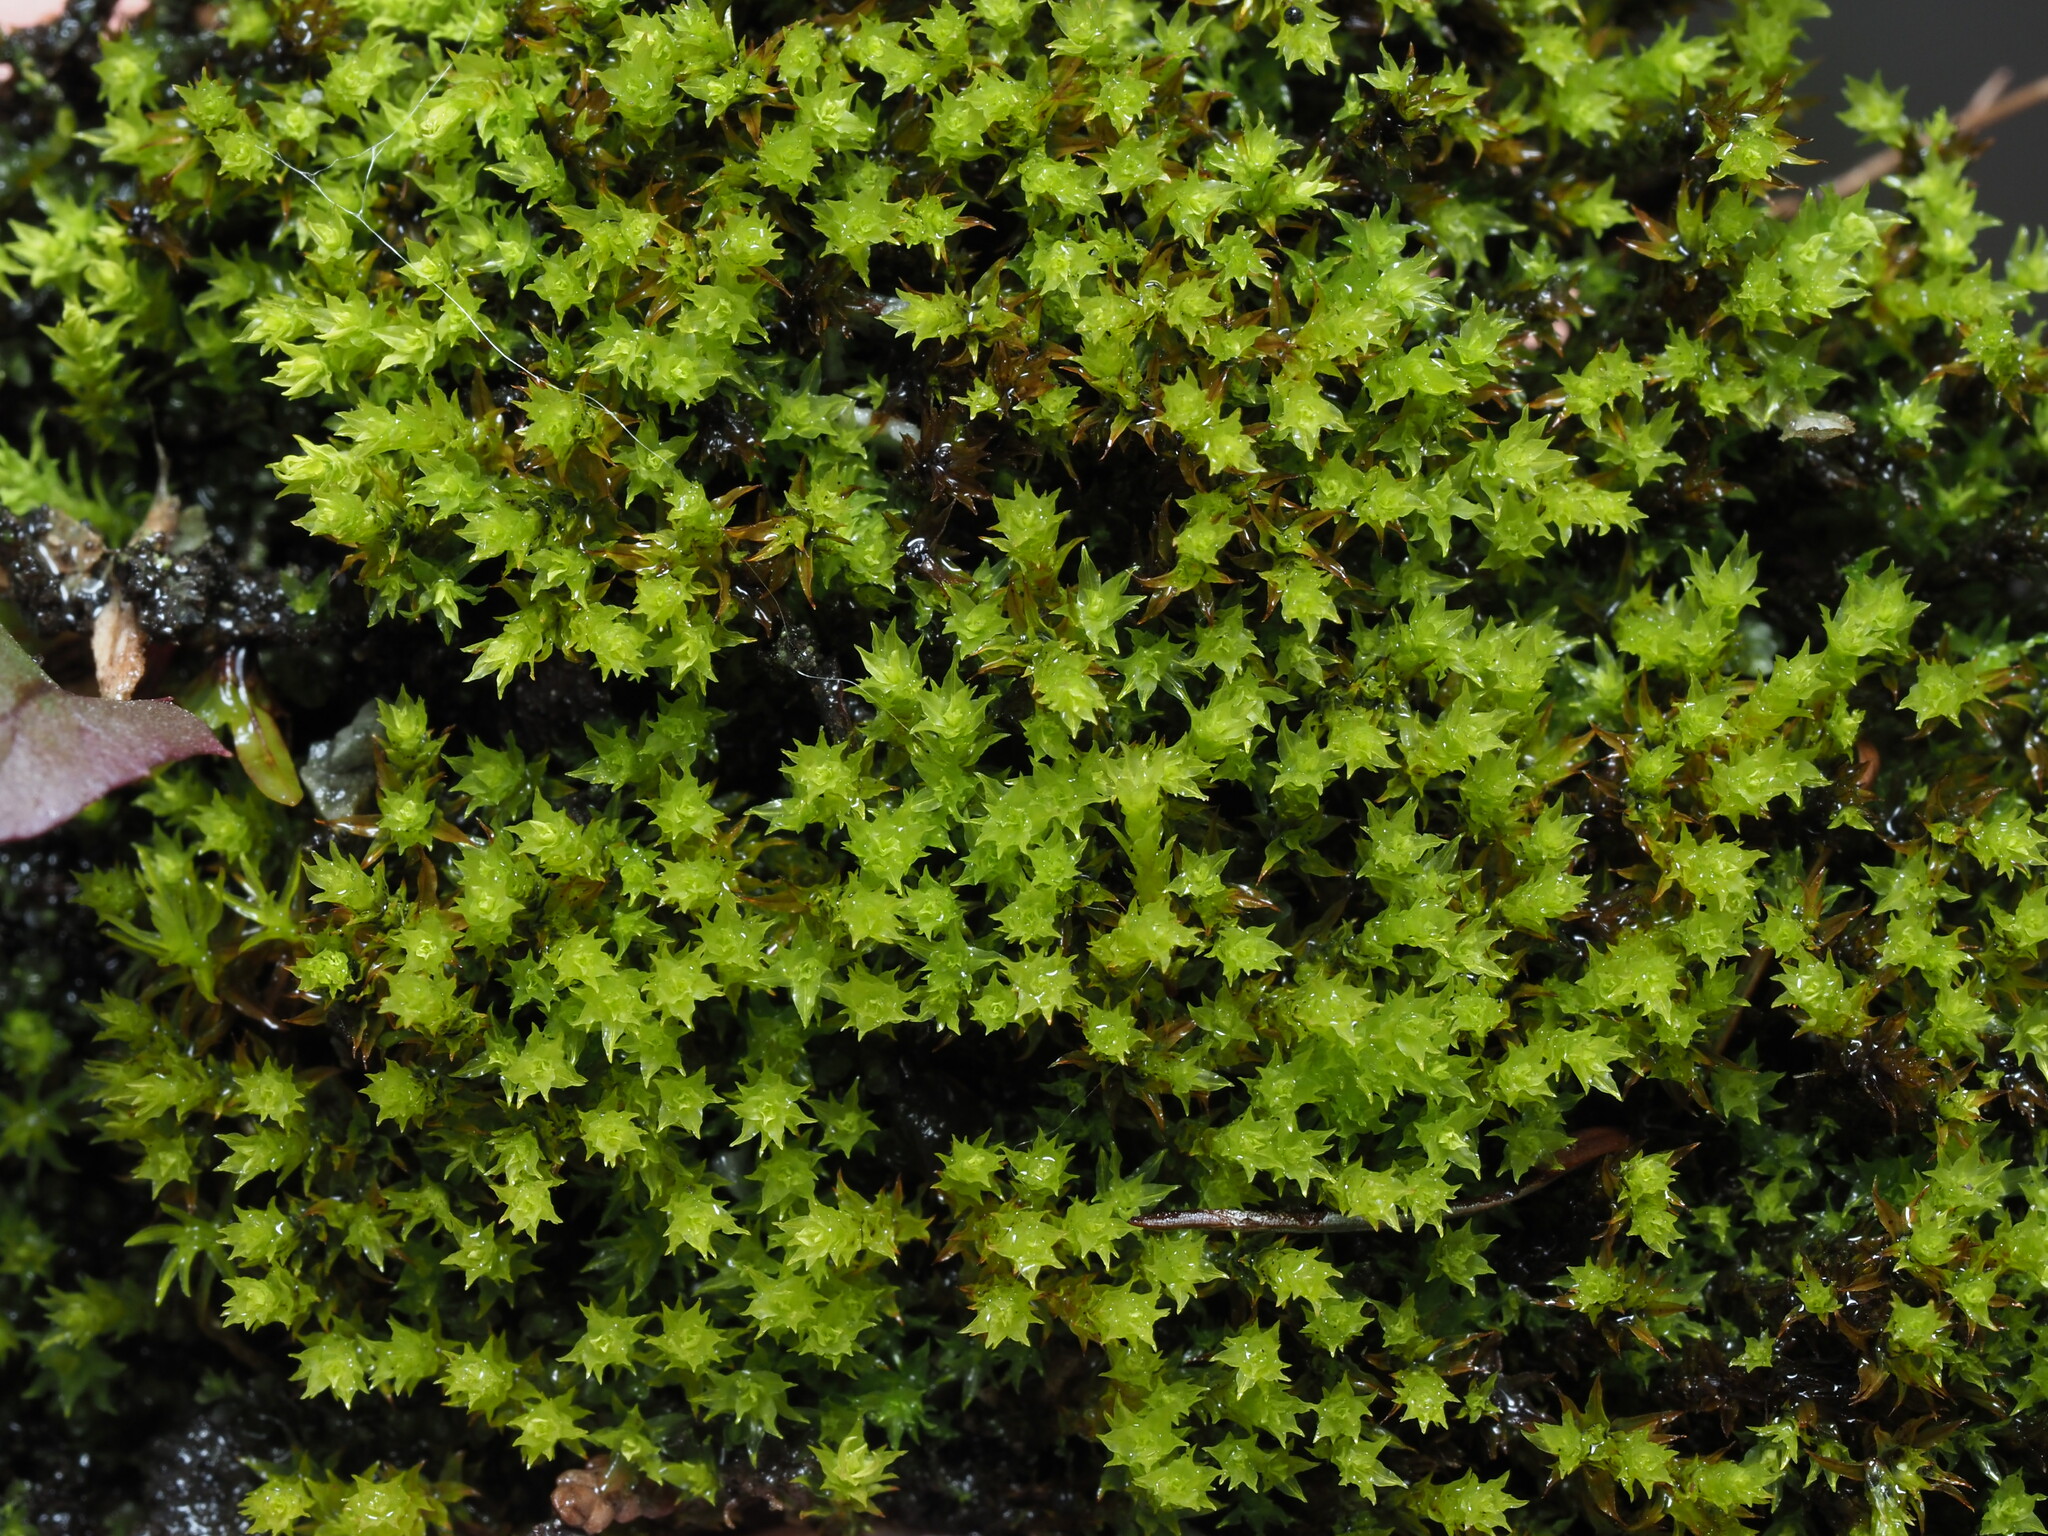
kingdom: Plantae
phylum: Bryophyta
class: Bryopsida
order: Pottiales
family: Pottiaceae
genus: Bryoerythrophyllum
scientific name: Bryoerythrophyllum ferruginascens
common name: Rufous beard-moss
